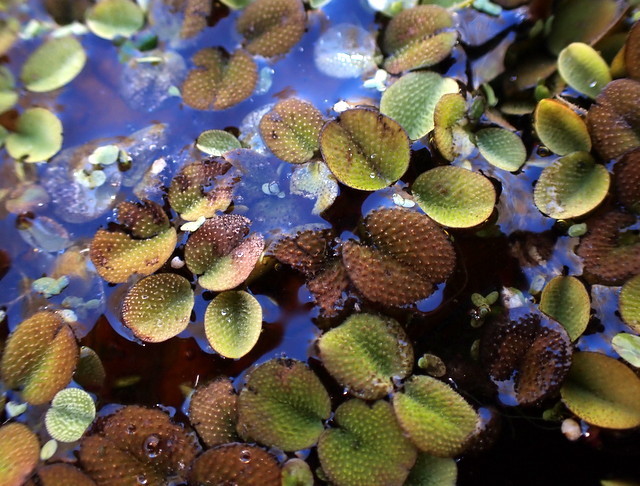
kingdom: Plantae
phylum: Tracheophyta
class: Polypodiopsida
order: Salviniales
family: Salviniaceae
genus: Salvinia
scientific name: Salvinia minima
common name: Water spangles
